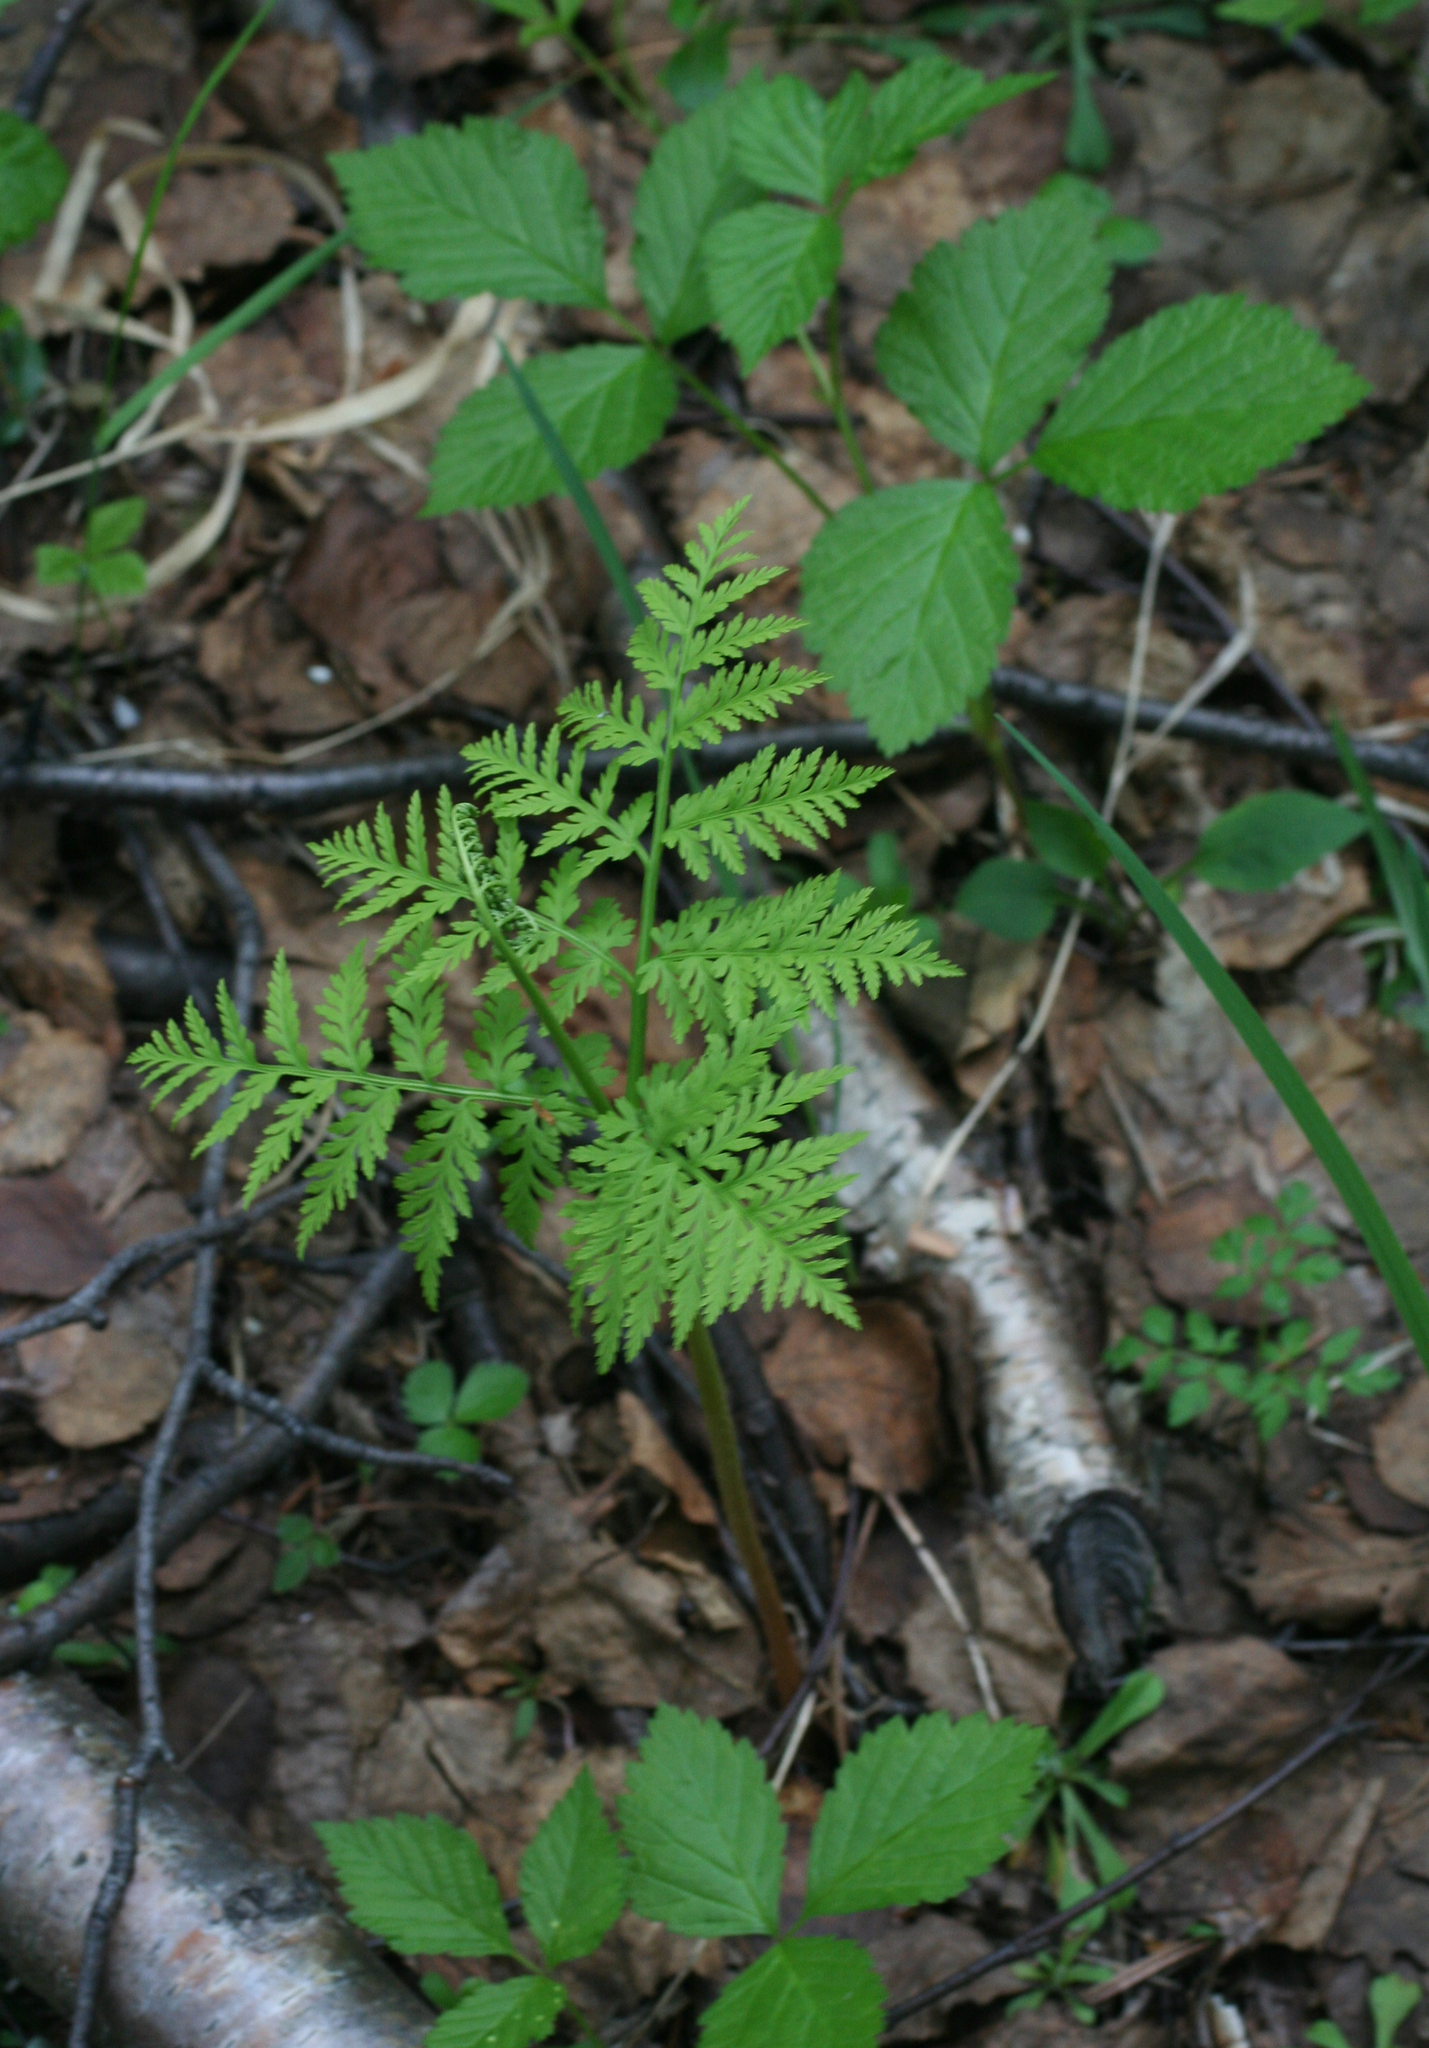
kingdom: Plantae
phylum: Tracheophyta
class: Polypodiopsida
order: Ophioglossales
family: Ophioglossaceae
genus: Botrypus
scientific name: Botrypus virginianus
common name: Common grapefern
